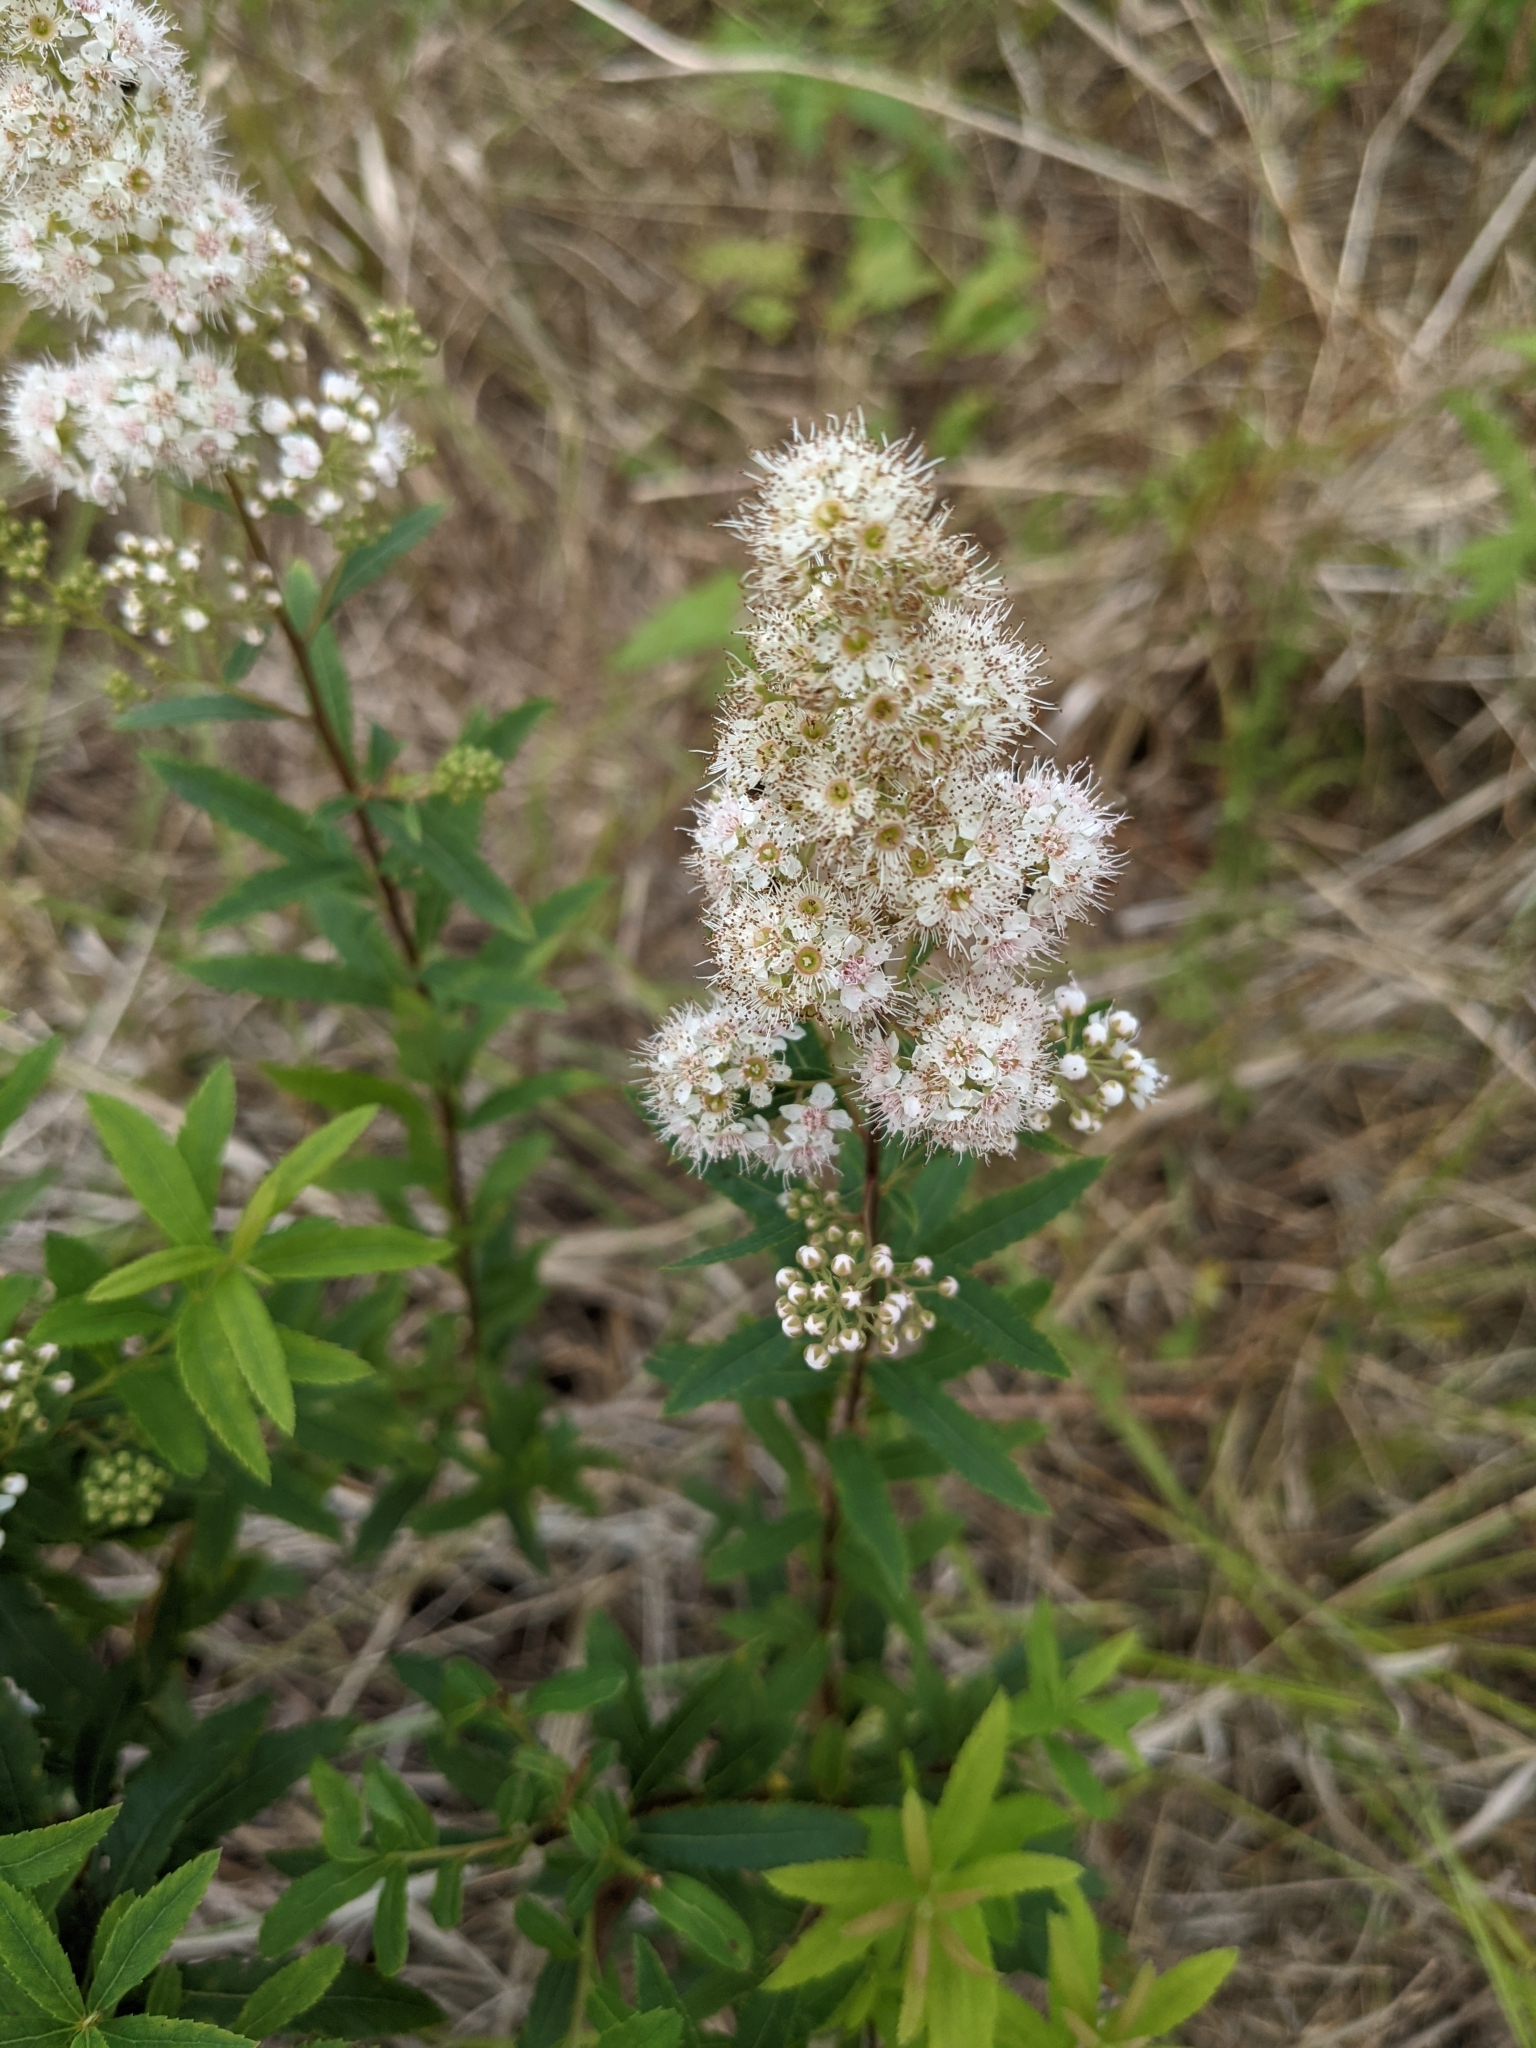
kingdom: Plantae
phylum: Tracheophyta
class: Magnoliopsida
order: Rosales
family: Rosaceae
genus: Spiraea
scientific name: Spiraea alba
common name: Pale bridewort
